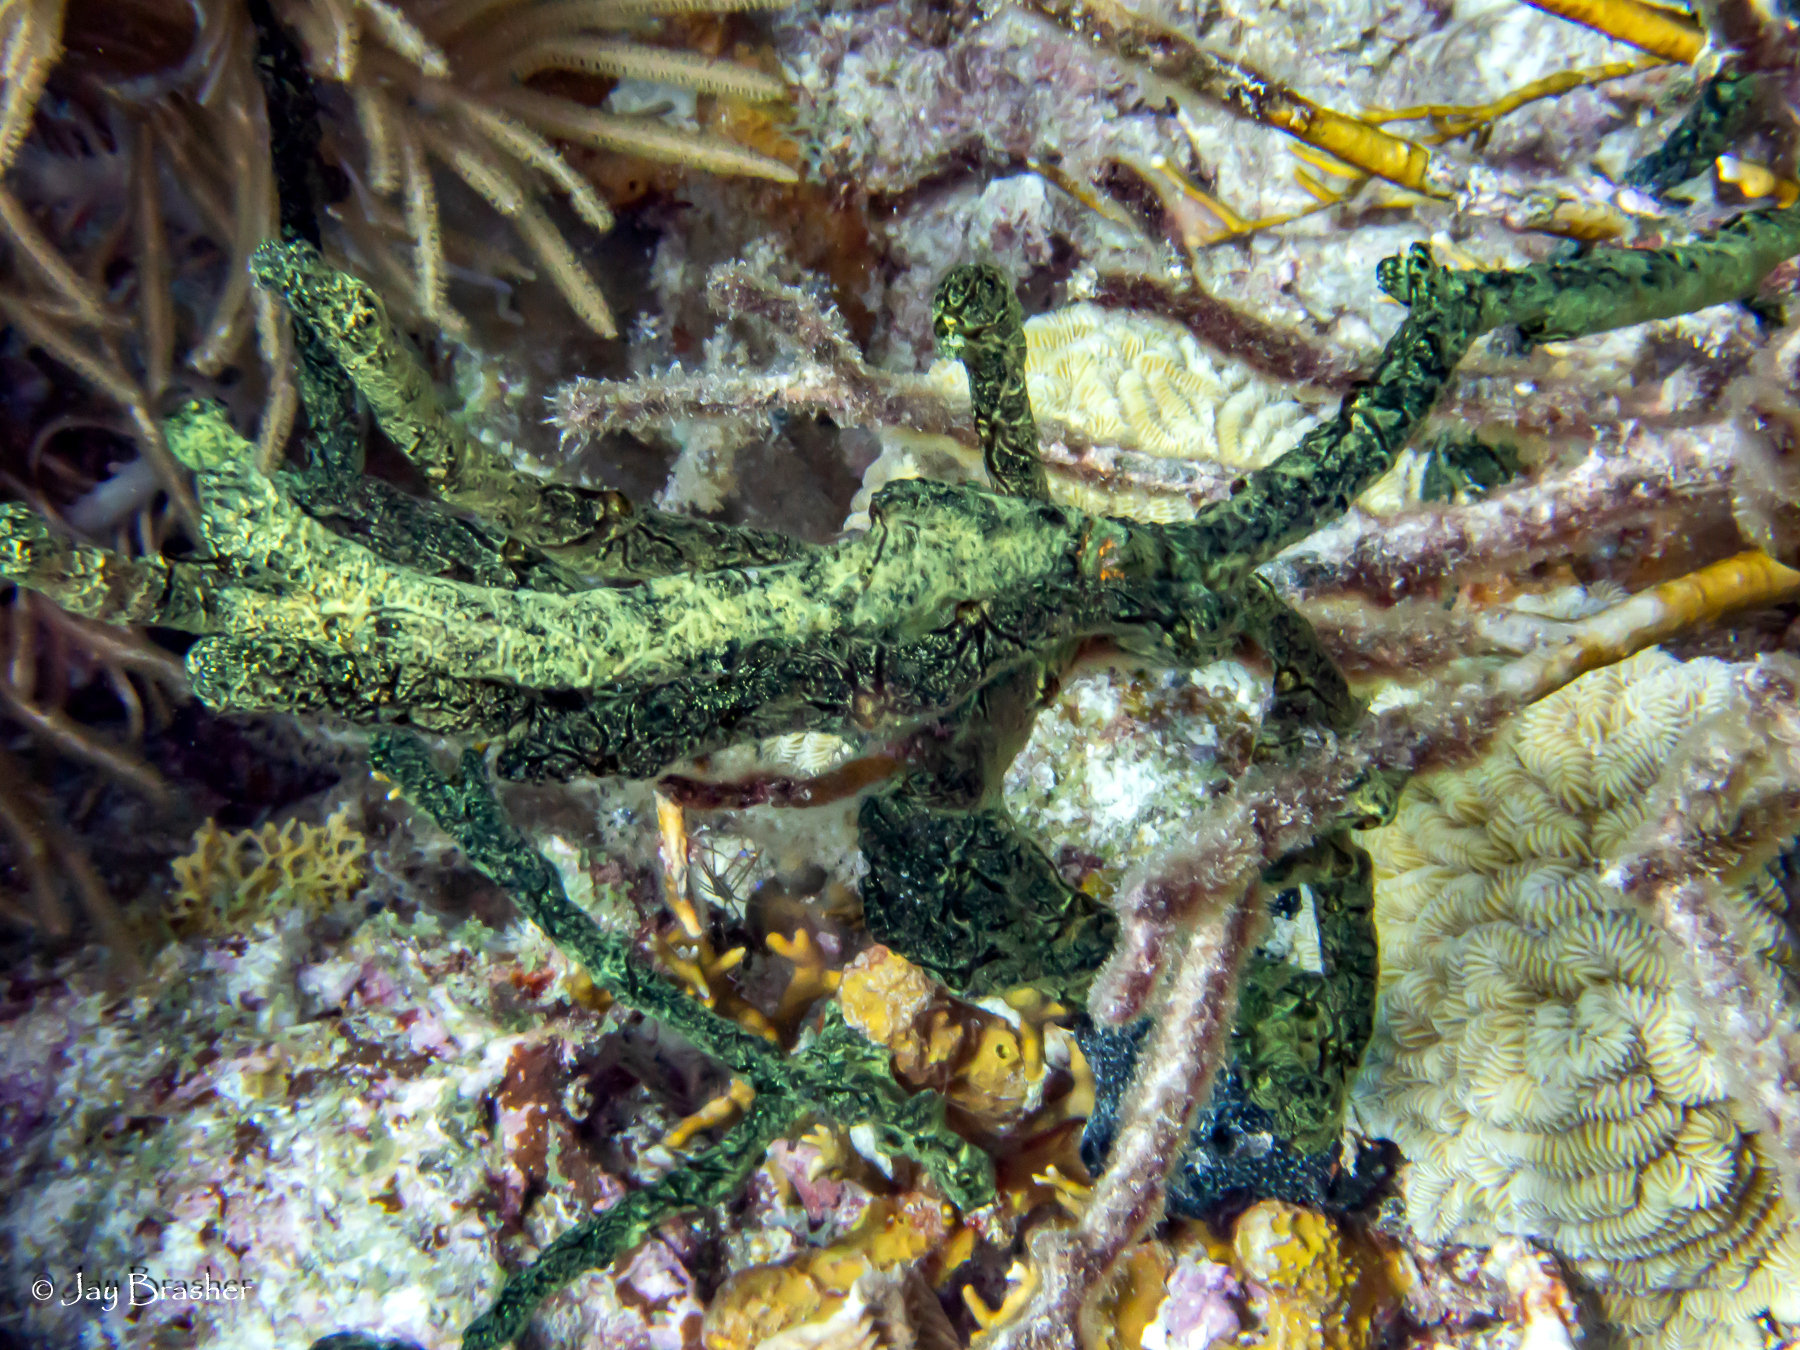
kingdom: Animalia
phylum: Cnidaria
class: Anthozoa
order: Scleractinia
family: Meandrinidae
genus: Meandrina
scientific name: Meandrina meandrites
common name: Maze coral
